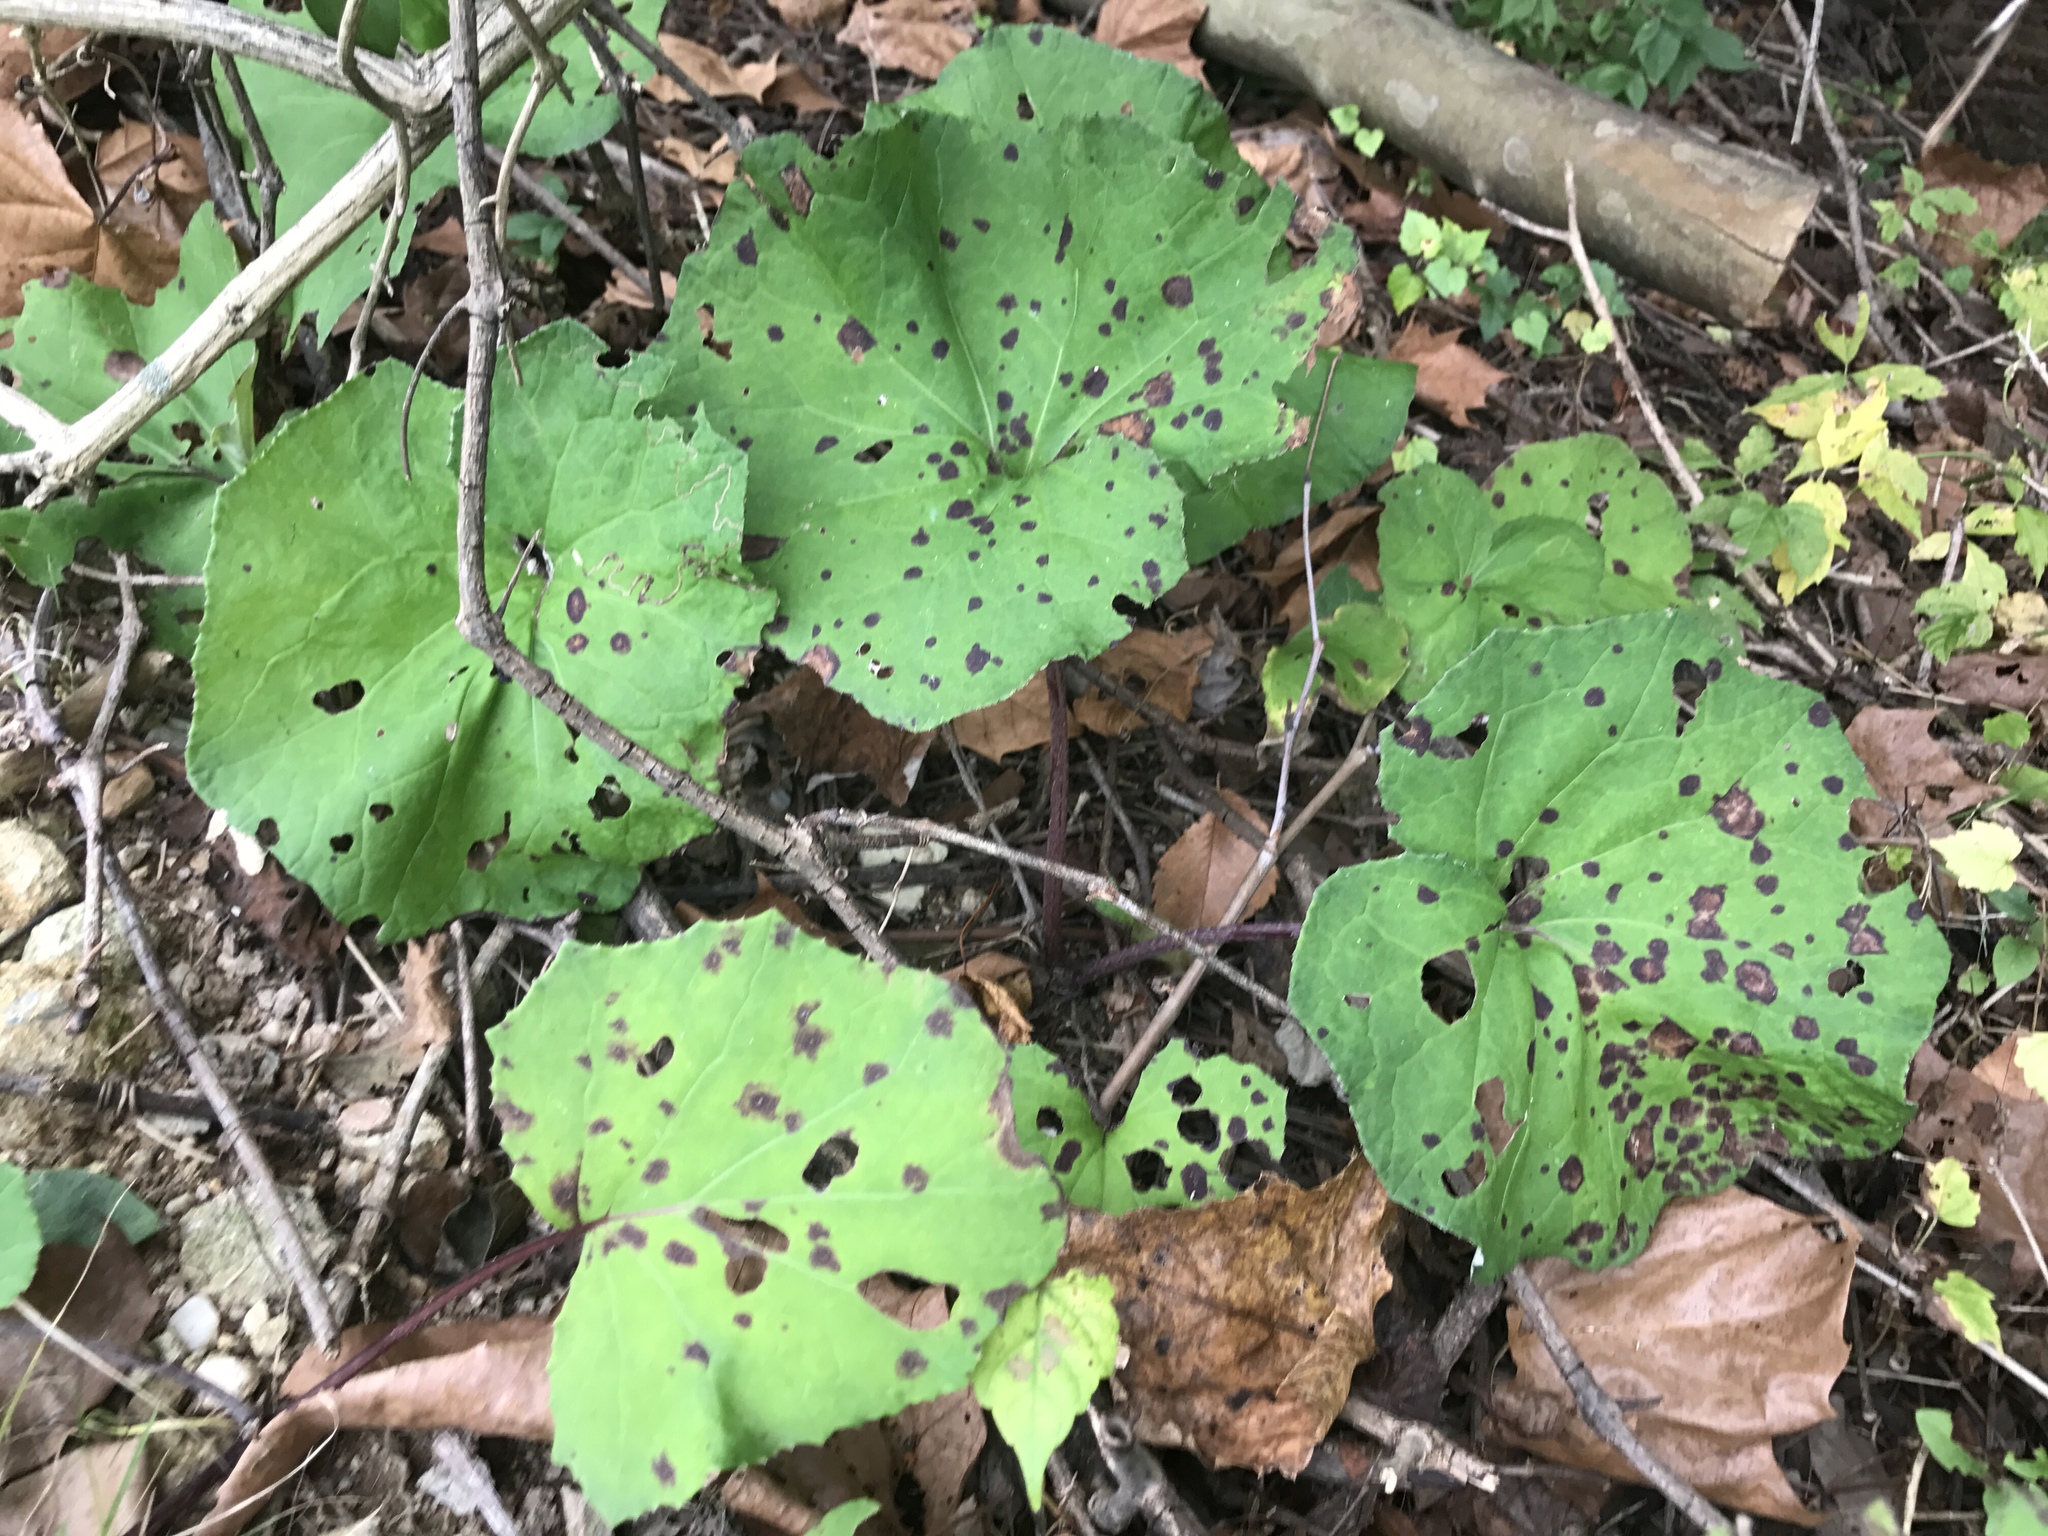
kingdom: Plantae
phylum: Tracheophyta
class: Magnoliopsida
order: Asterales
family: Asteraceae
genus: Tussilago
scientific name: Tussilago farfara
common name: Coltsfoot
